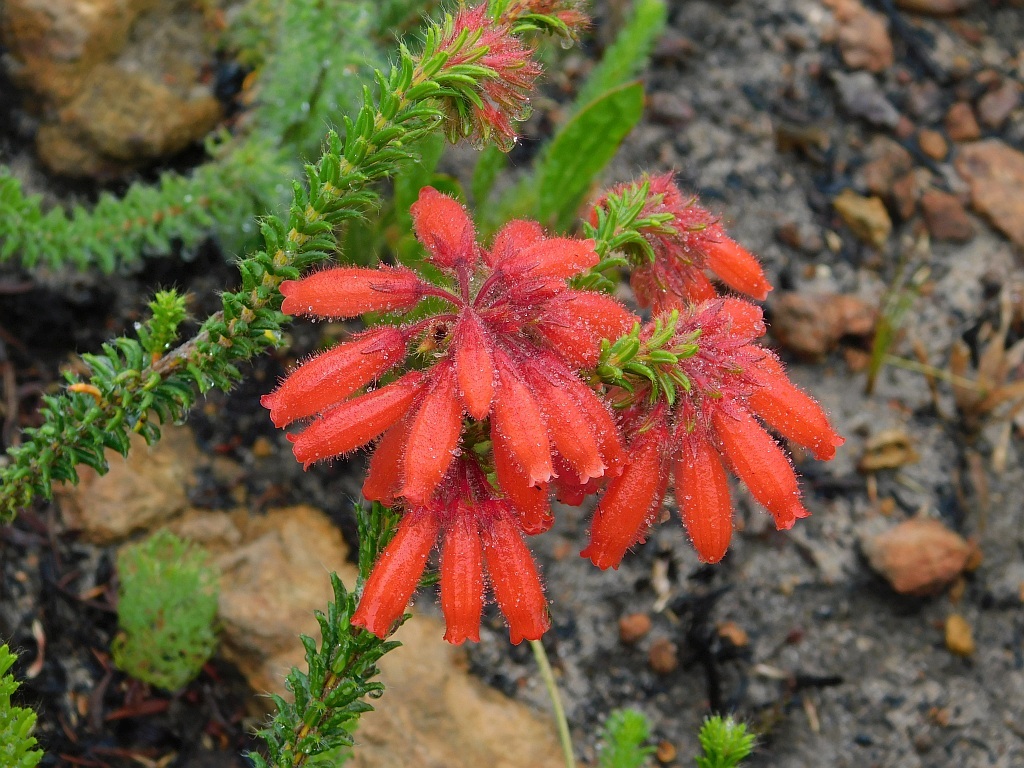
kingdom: Plantae
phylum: Tracheophyta
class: Magnoliopsida
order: Ericales
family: Ericaceae
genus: Erica
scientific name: Erica cerinthoides
